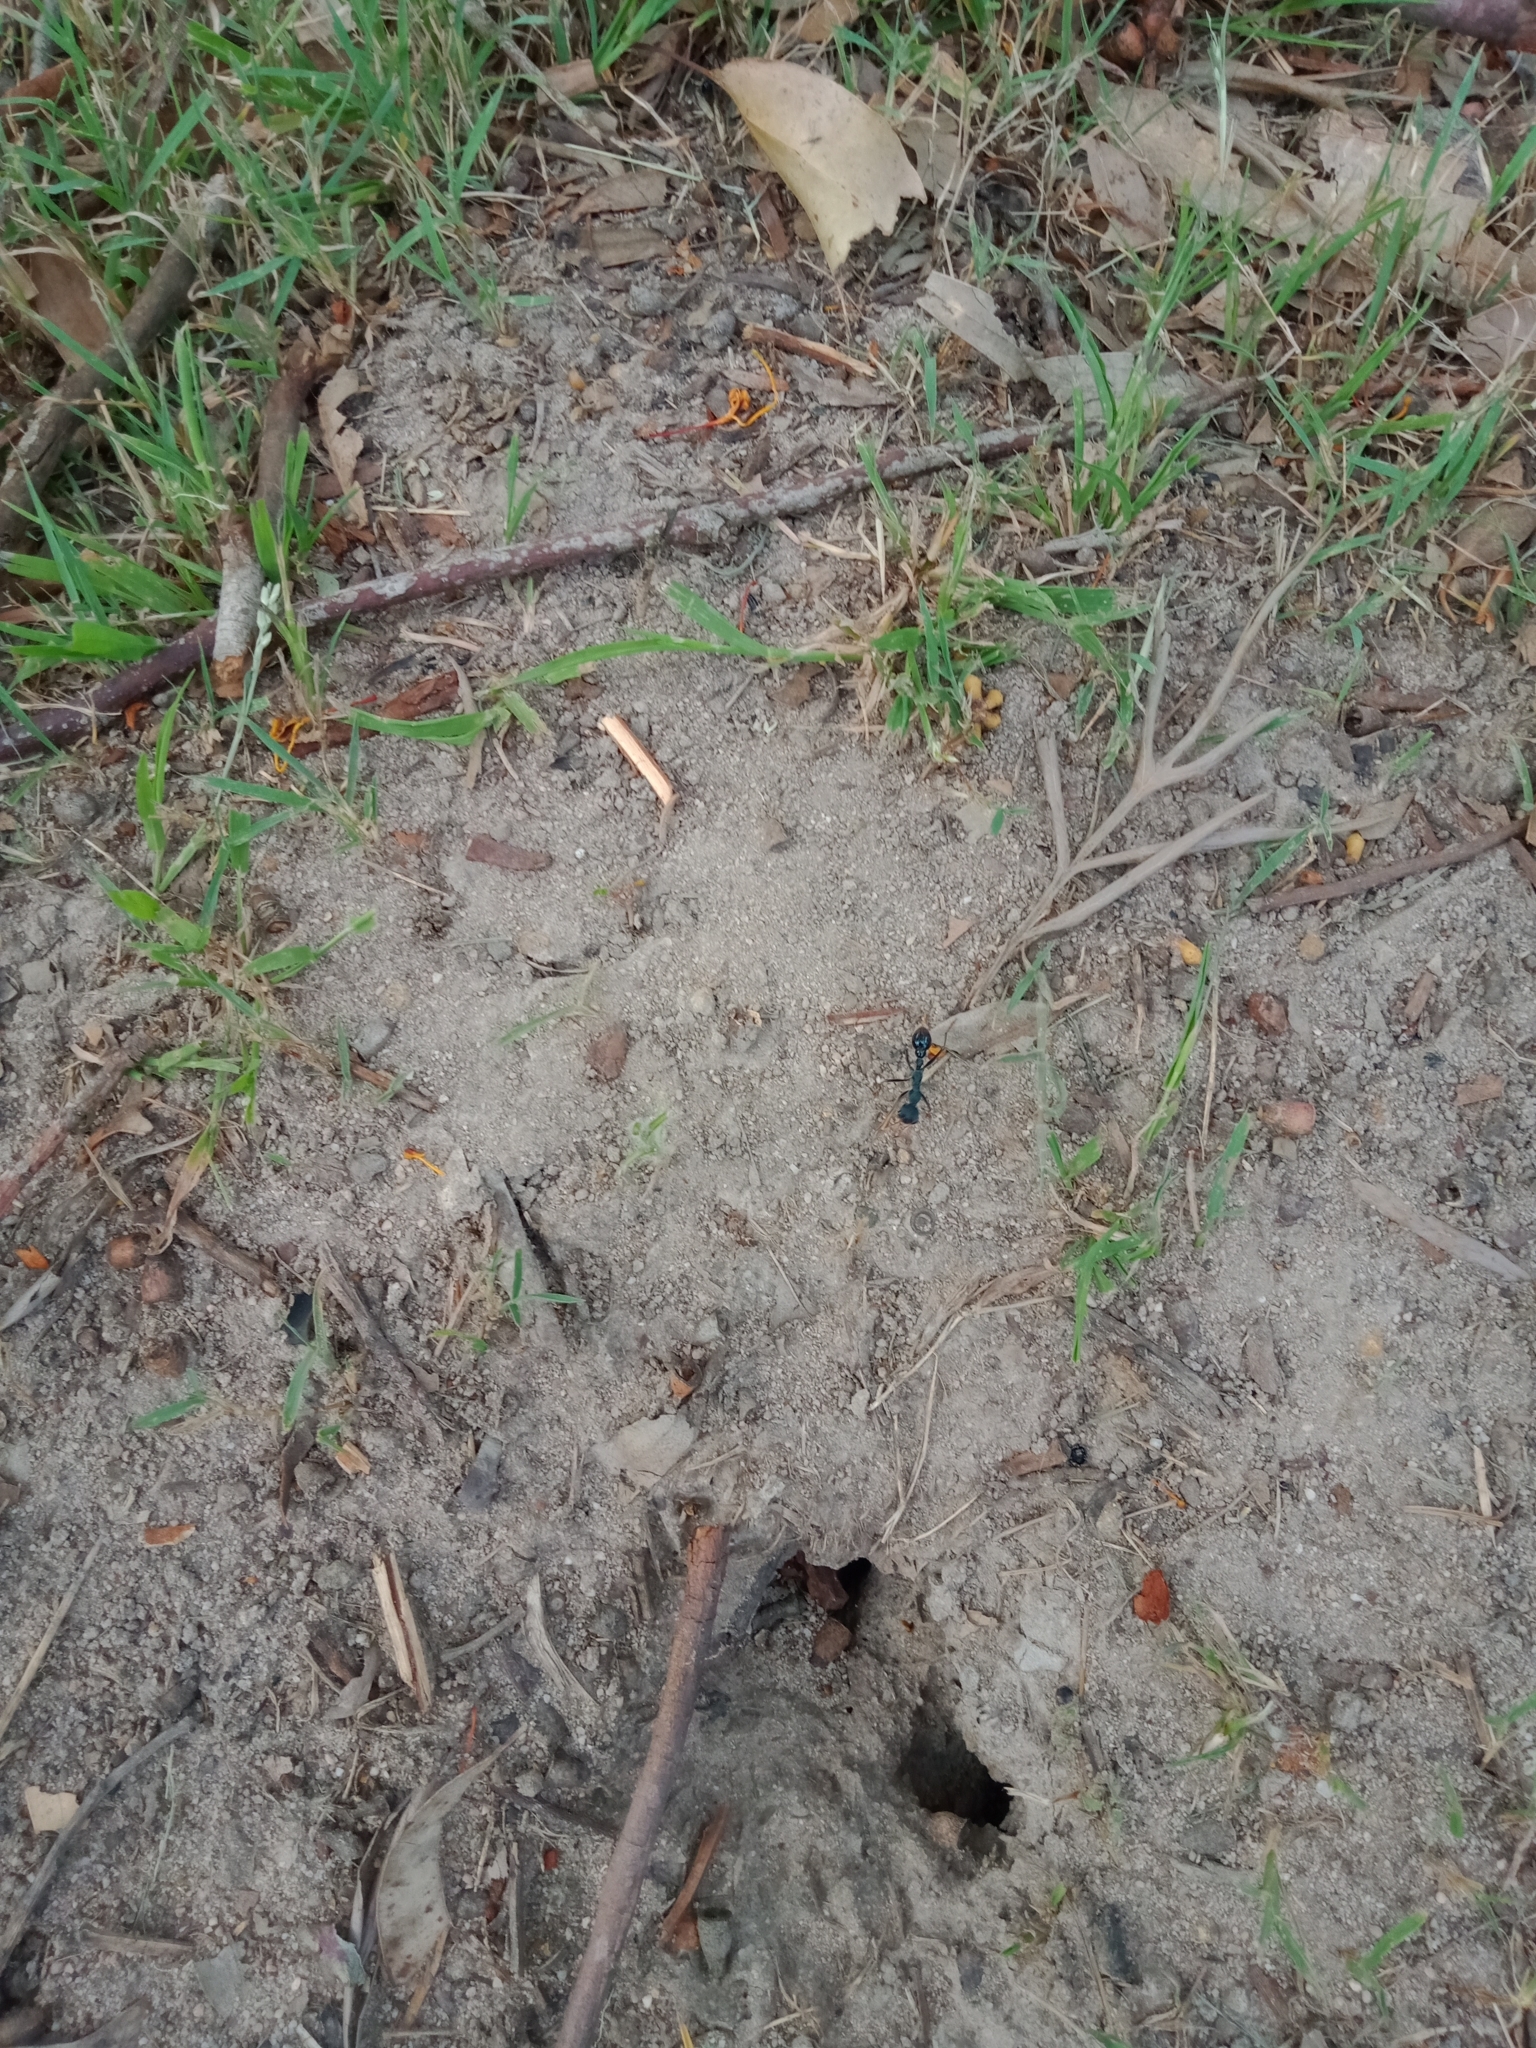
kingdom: Animalia
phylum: Arthropoda
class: Insecta
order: Hymenoptera
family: Formicidae
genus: Myrmecia
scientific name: Myrmecia tarsata
